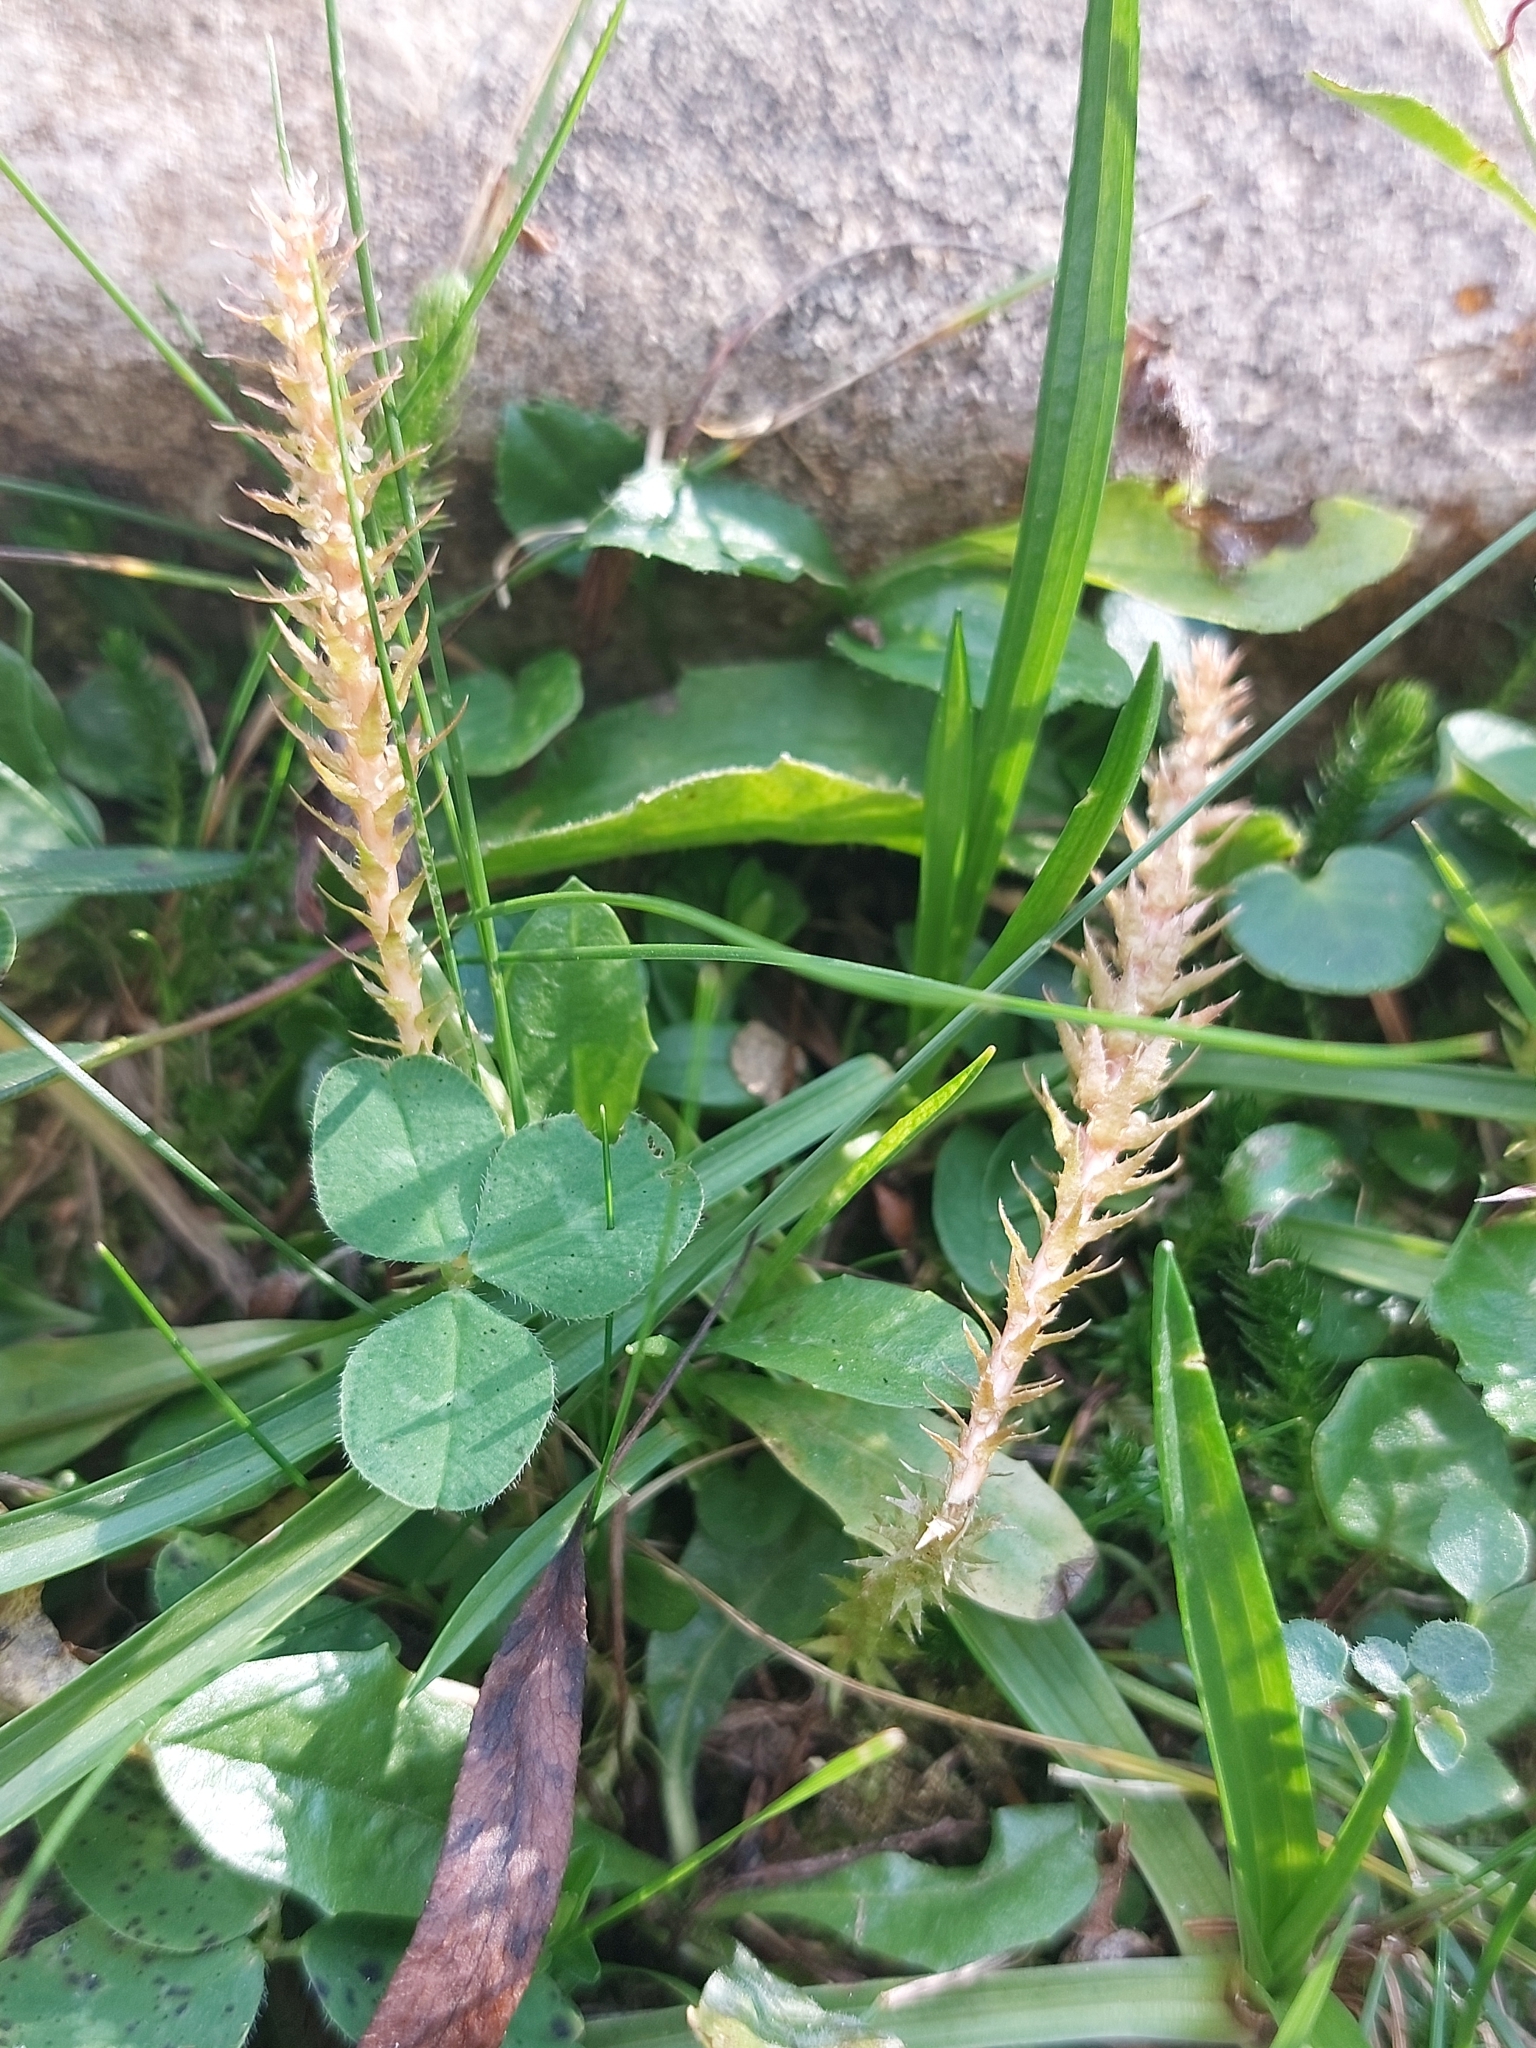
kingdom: Plantae
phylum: Tracheophyta
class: Lycopodiopsida
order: Selaginellales
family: Selaginellaceae
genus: Selaginella
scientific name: Selaginella selaginoides
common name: Prickly mountain-moss
